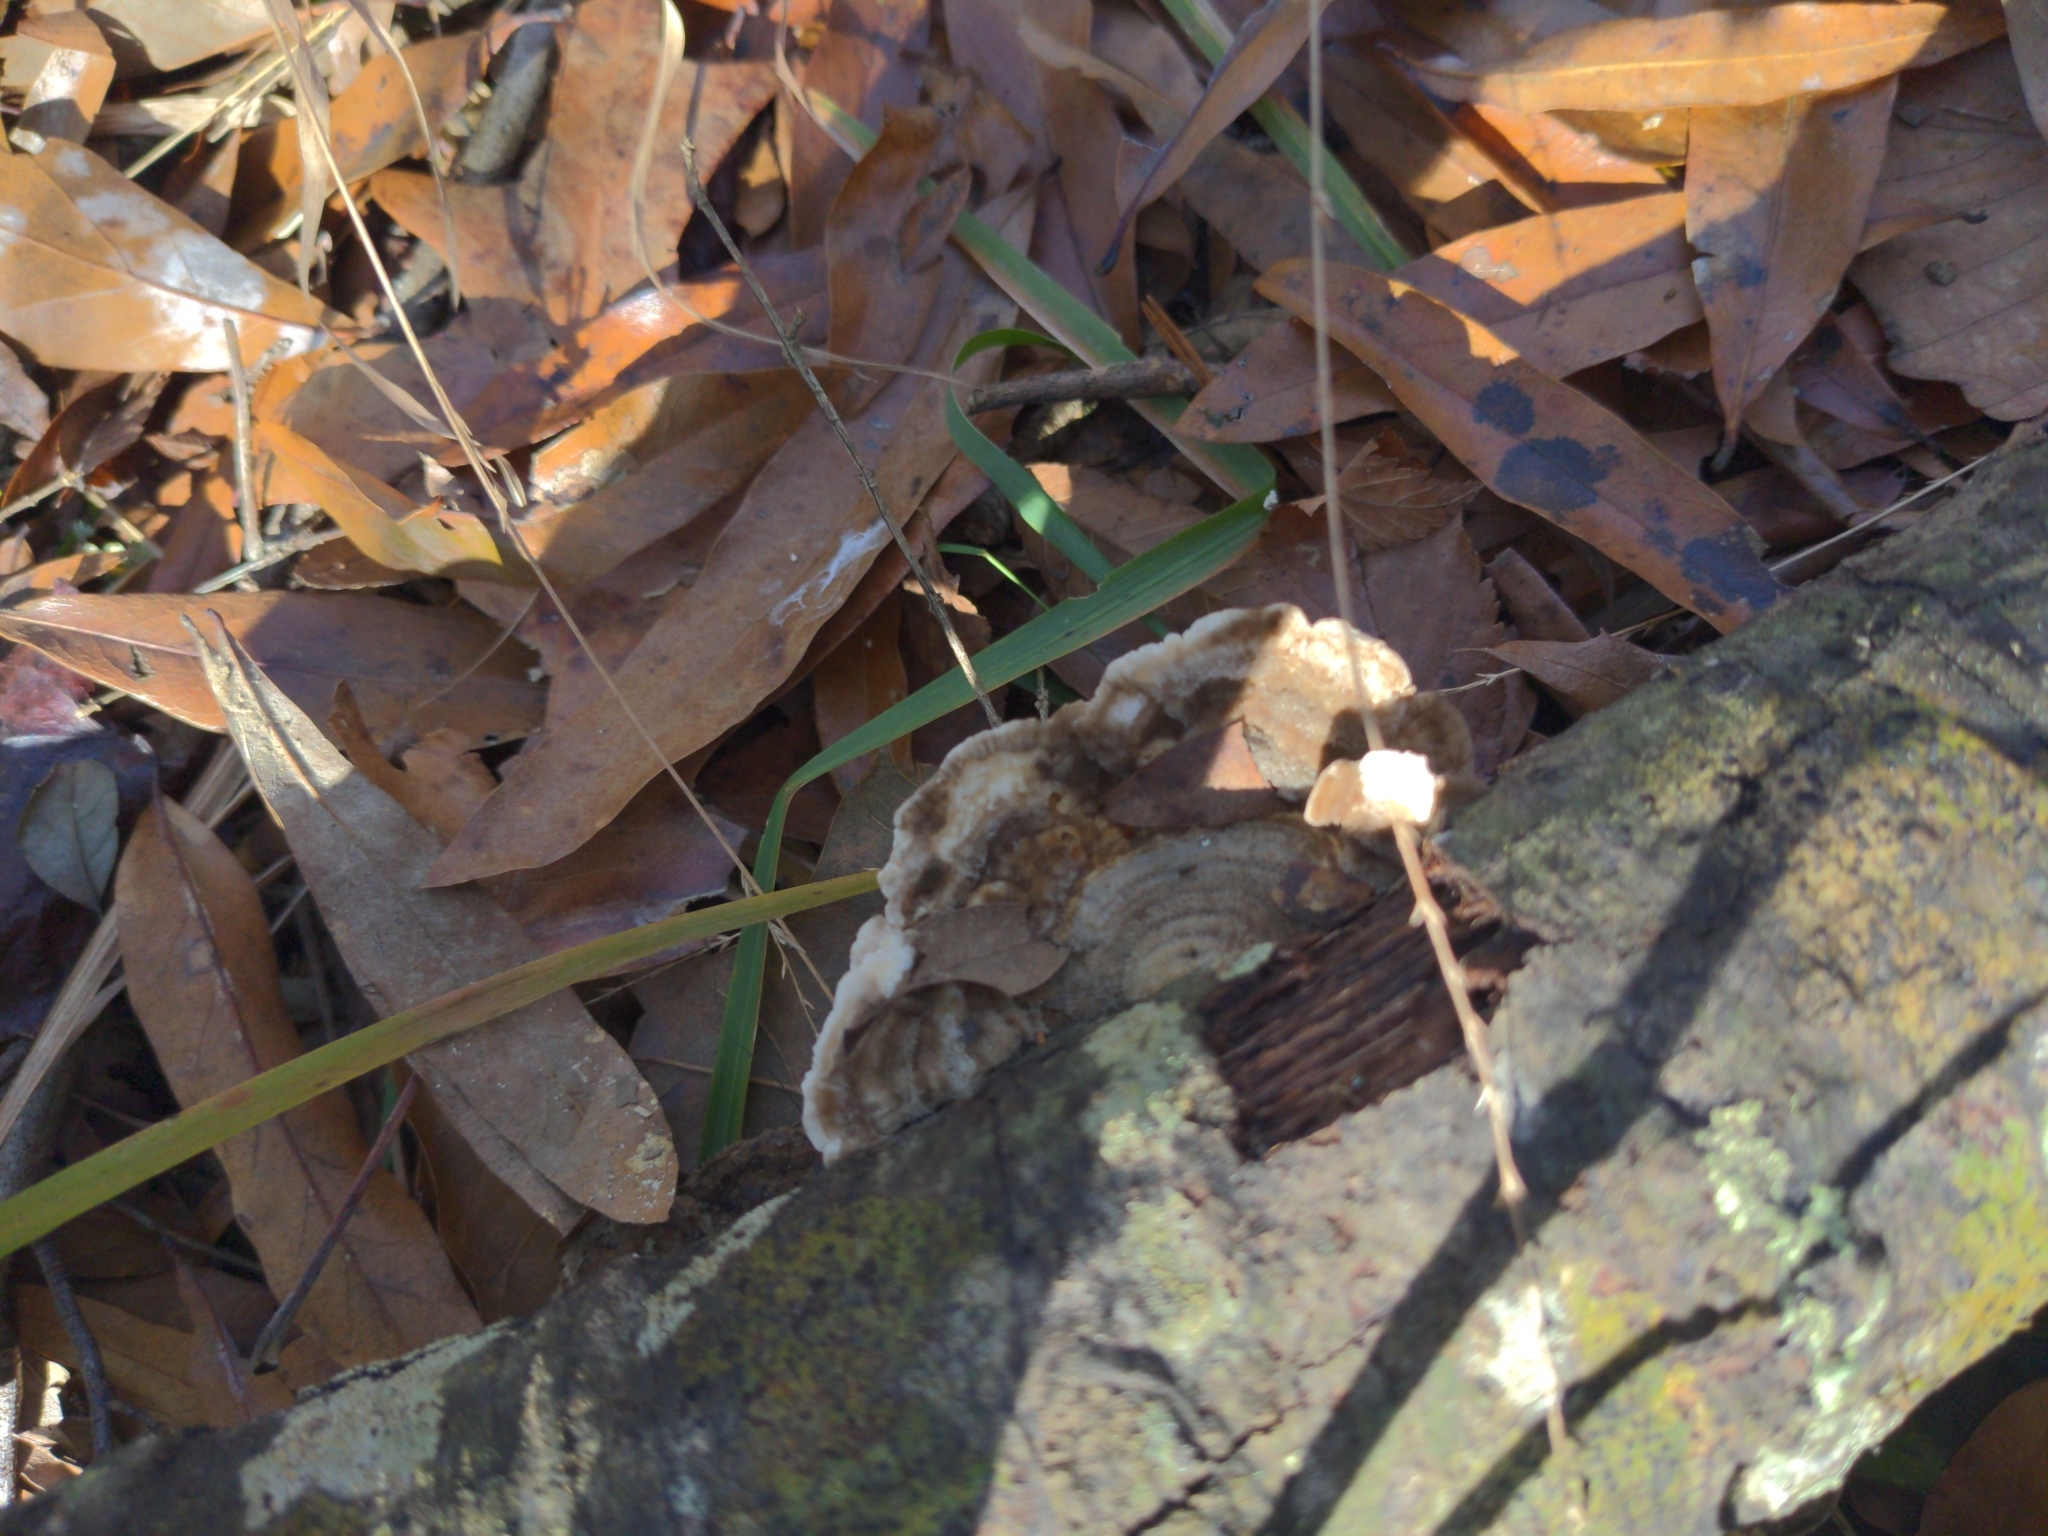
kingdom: Fungi
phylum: Basidiomycota
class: Agaricomycetes
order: Polyporales
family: Polyporaceae
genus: Lenzites
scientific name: Lenzites betulinus
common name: Birch mazegill
